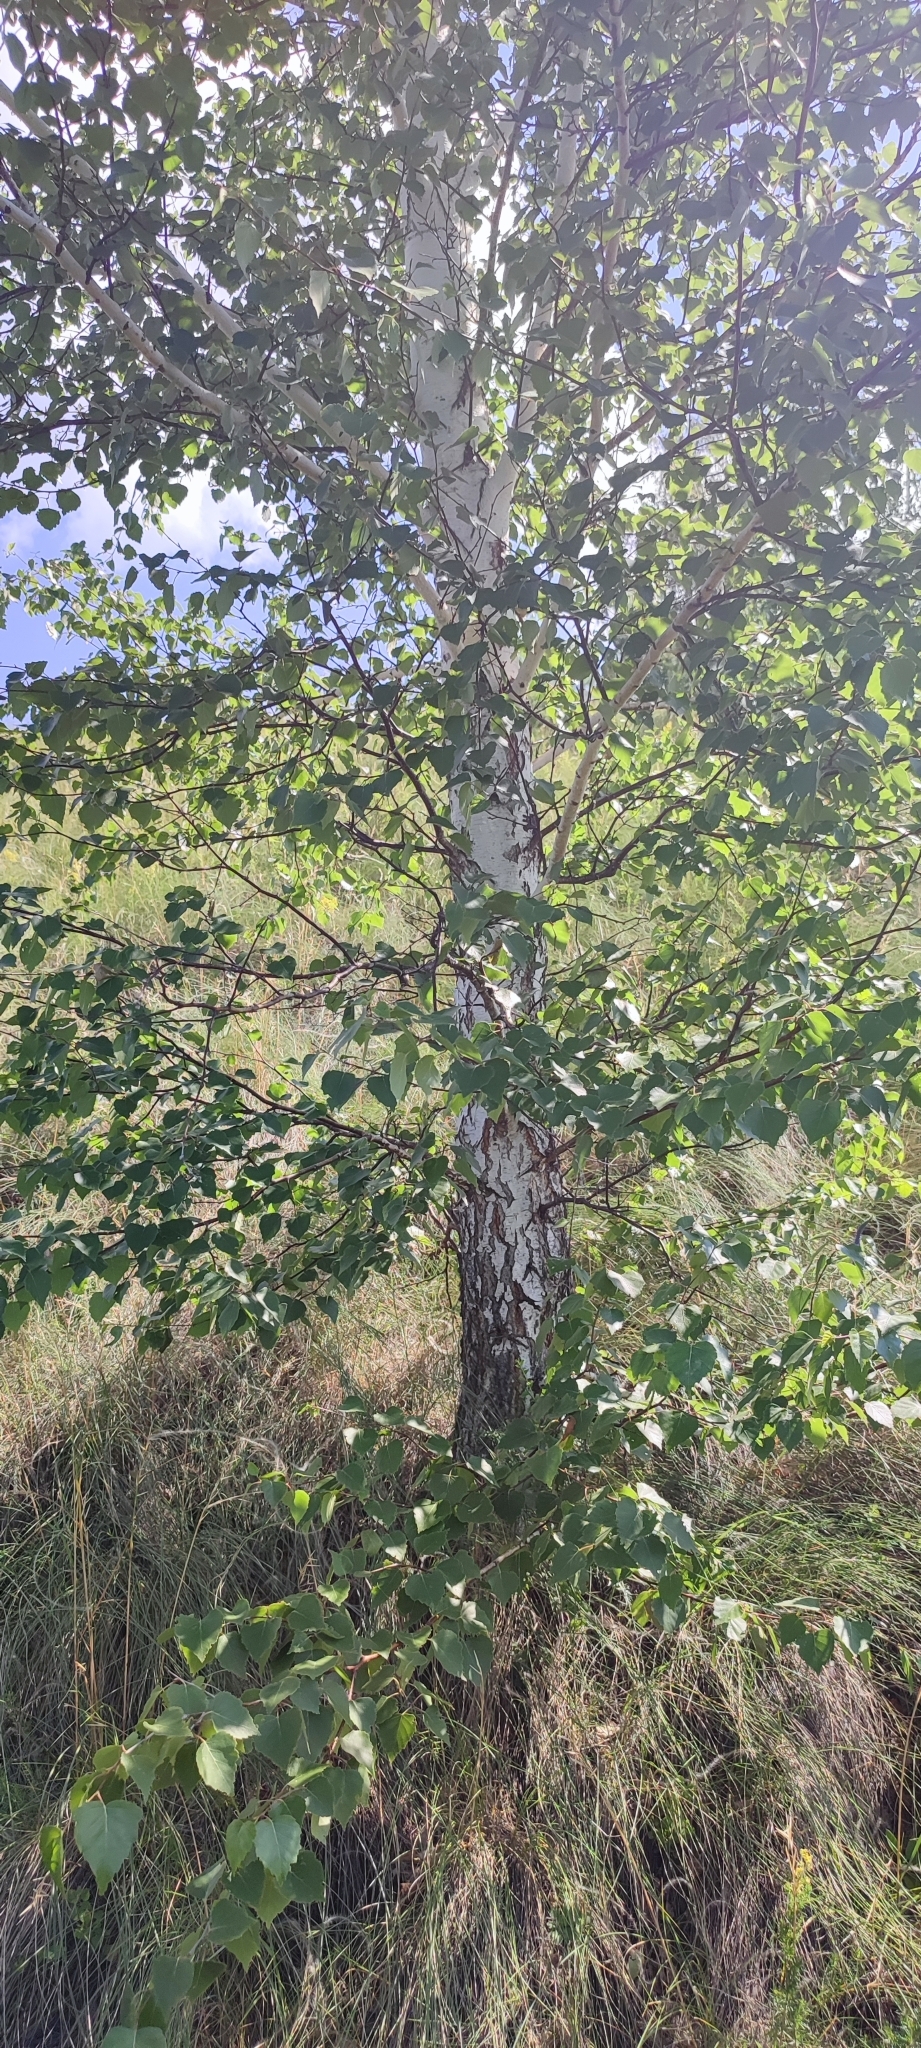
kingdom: Plantae
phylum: Tracheophyta
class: Magnoliopsida
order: Fagales
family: Betulaceae
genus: Betula
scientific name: Betula pendula
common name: Silver birch
